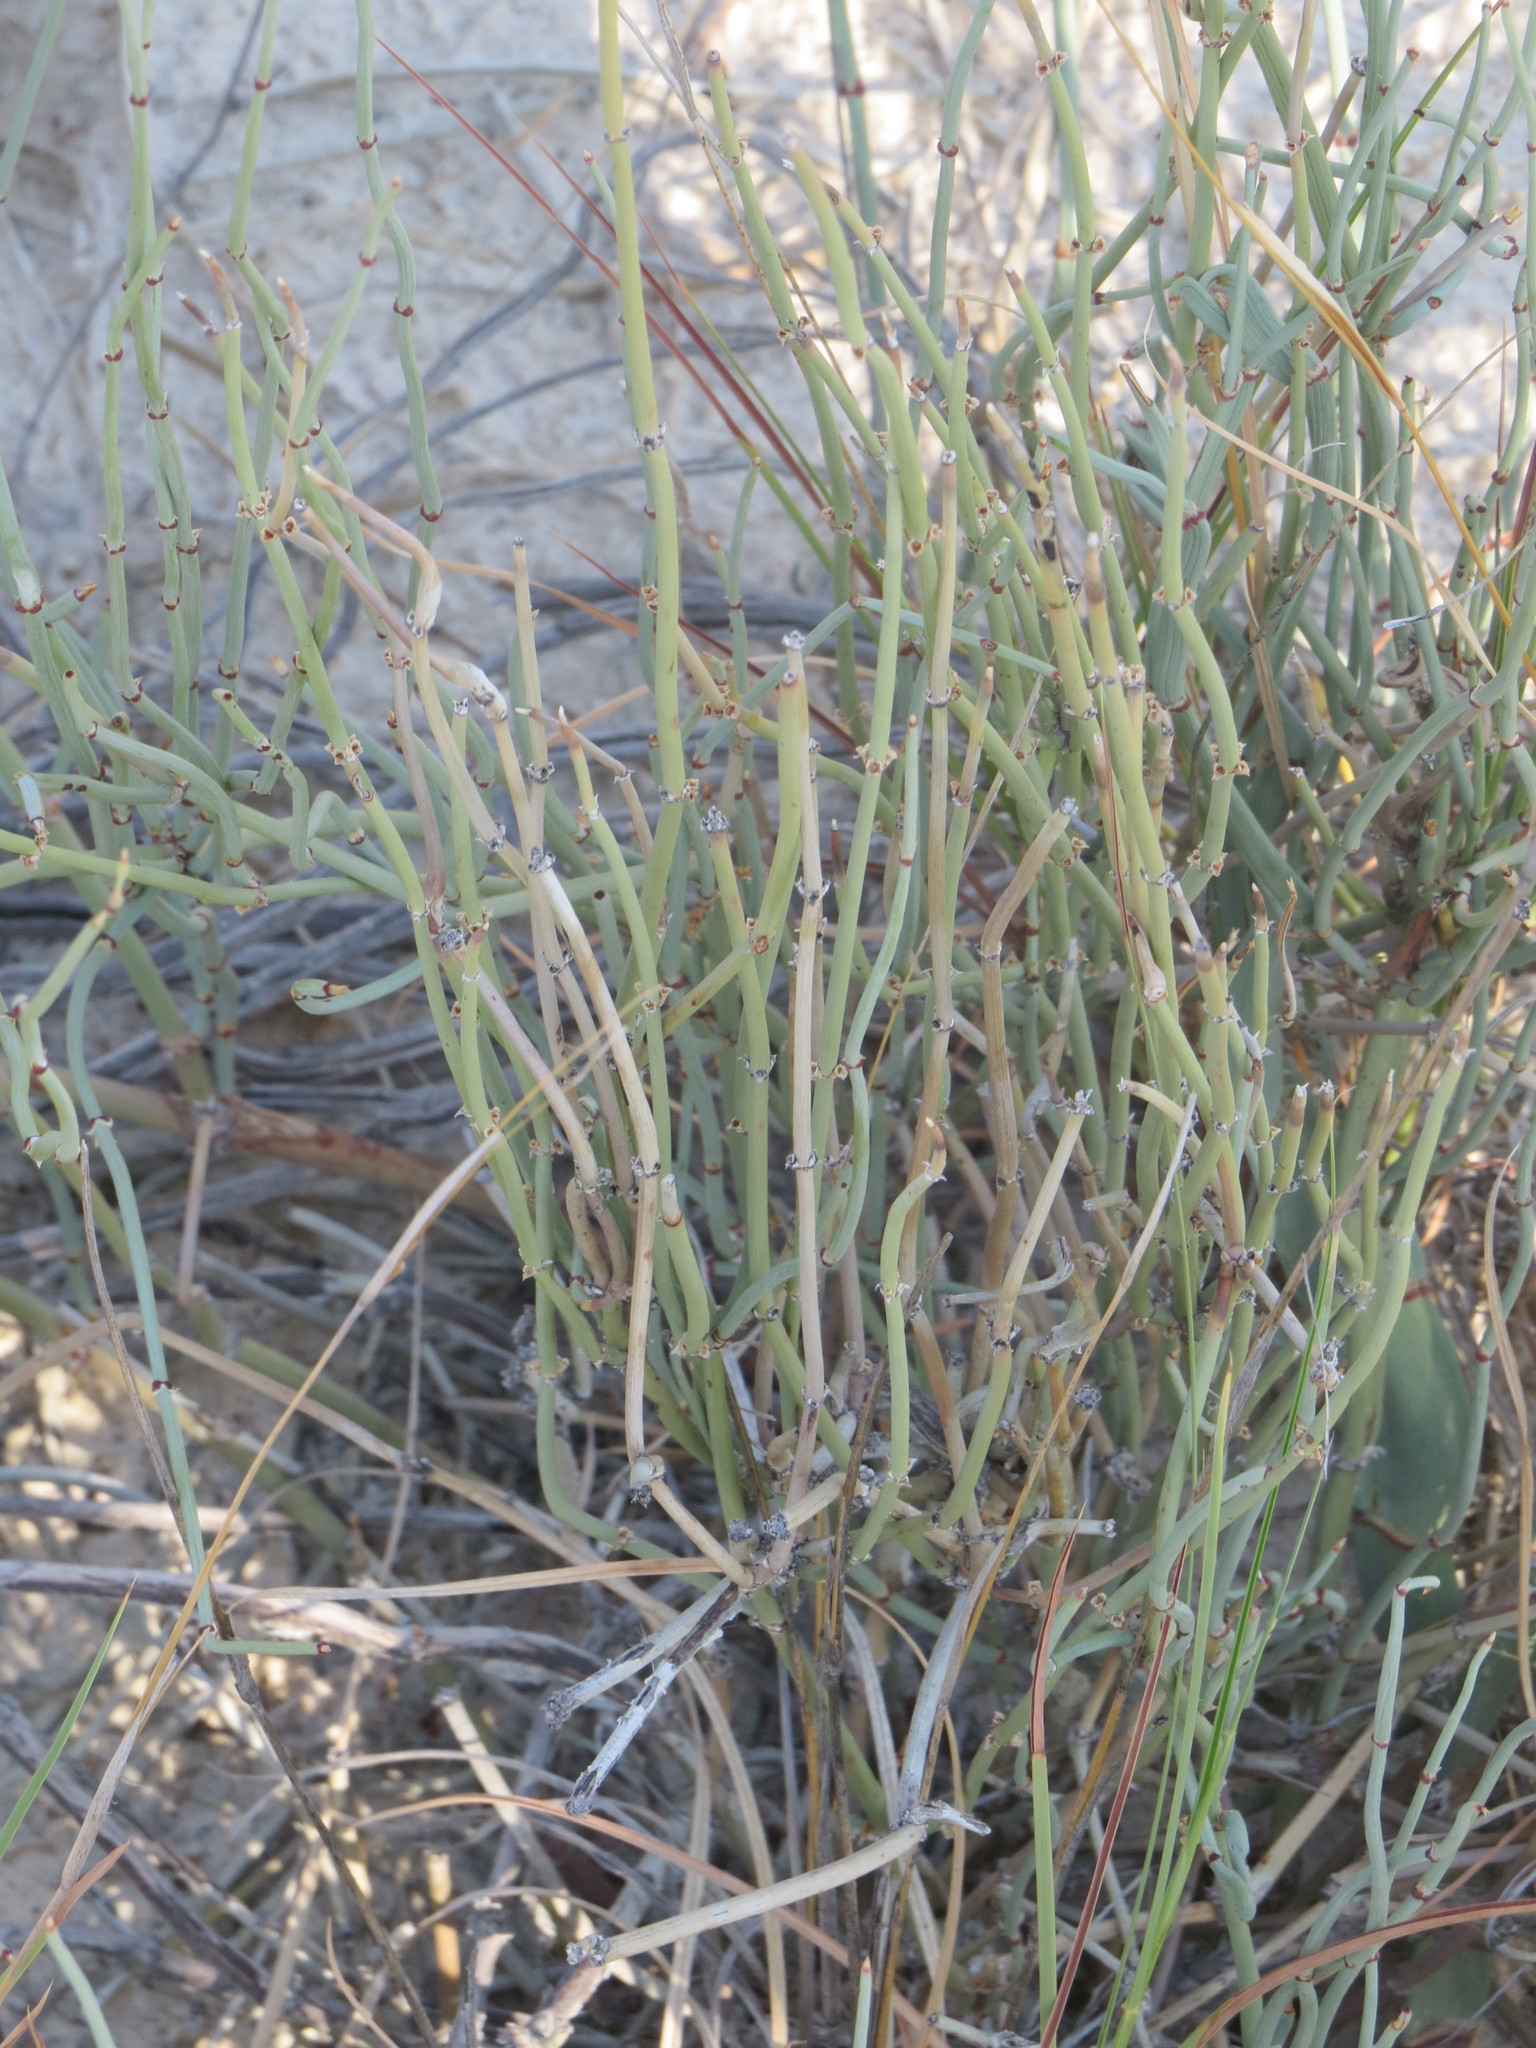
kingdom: Plantae
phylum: Tracheophyta
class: Gnetopsida
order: Ephedrales
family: Ephedraceae
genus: Ephedra
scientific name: Ephedra torreyana
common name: Torrey ephedra
